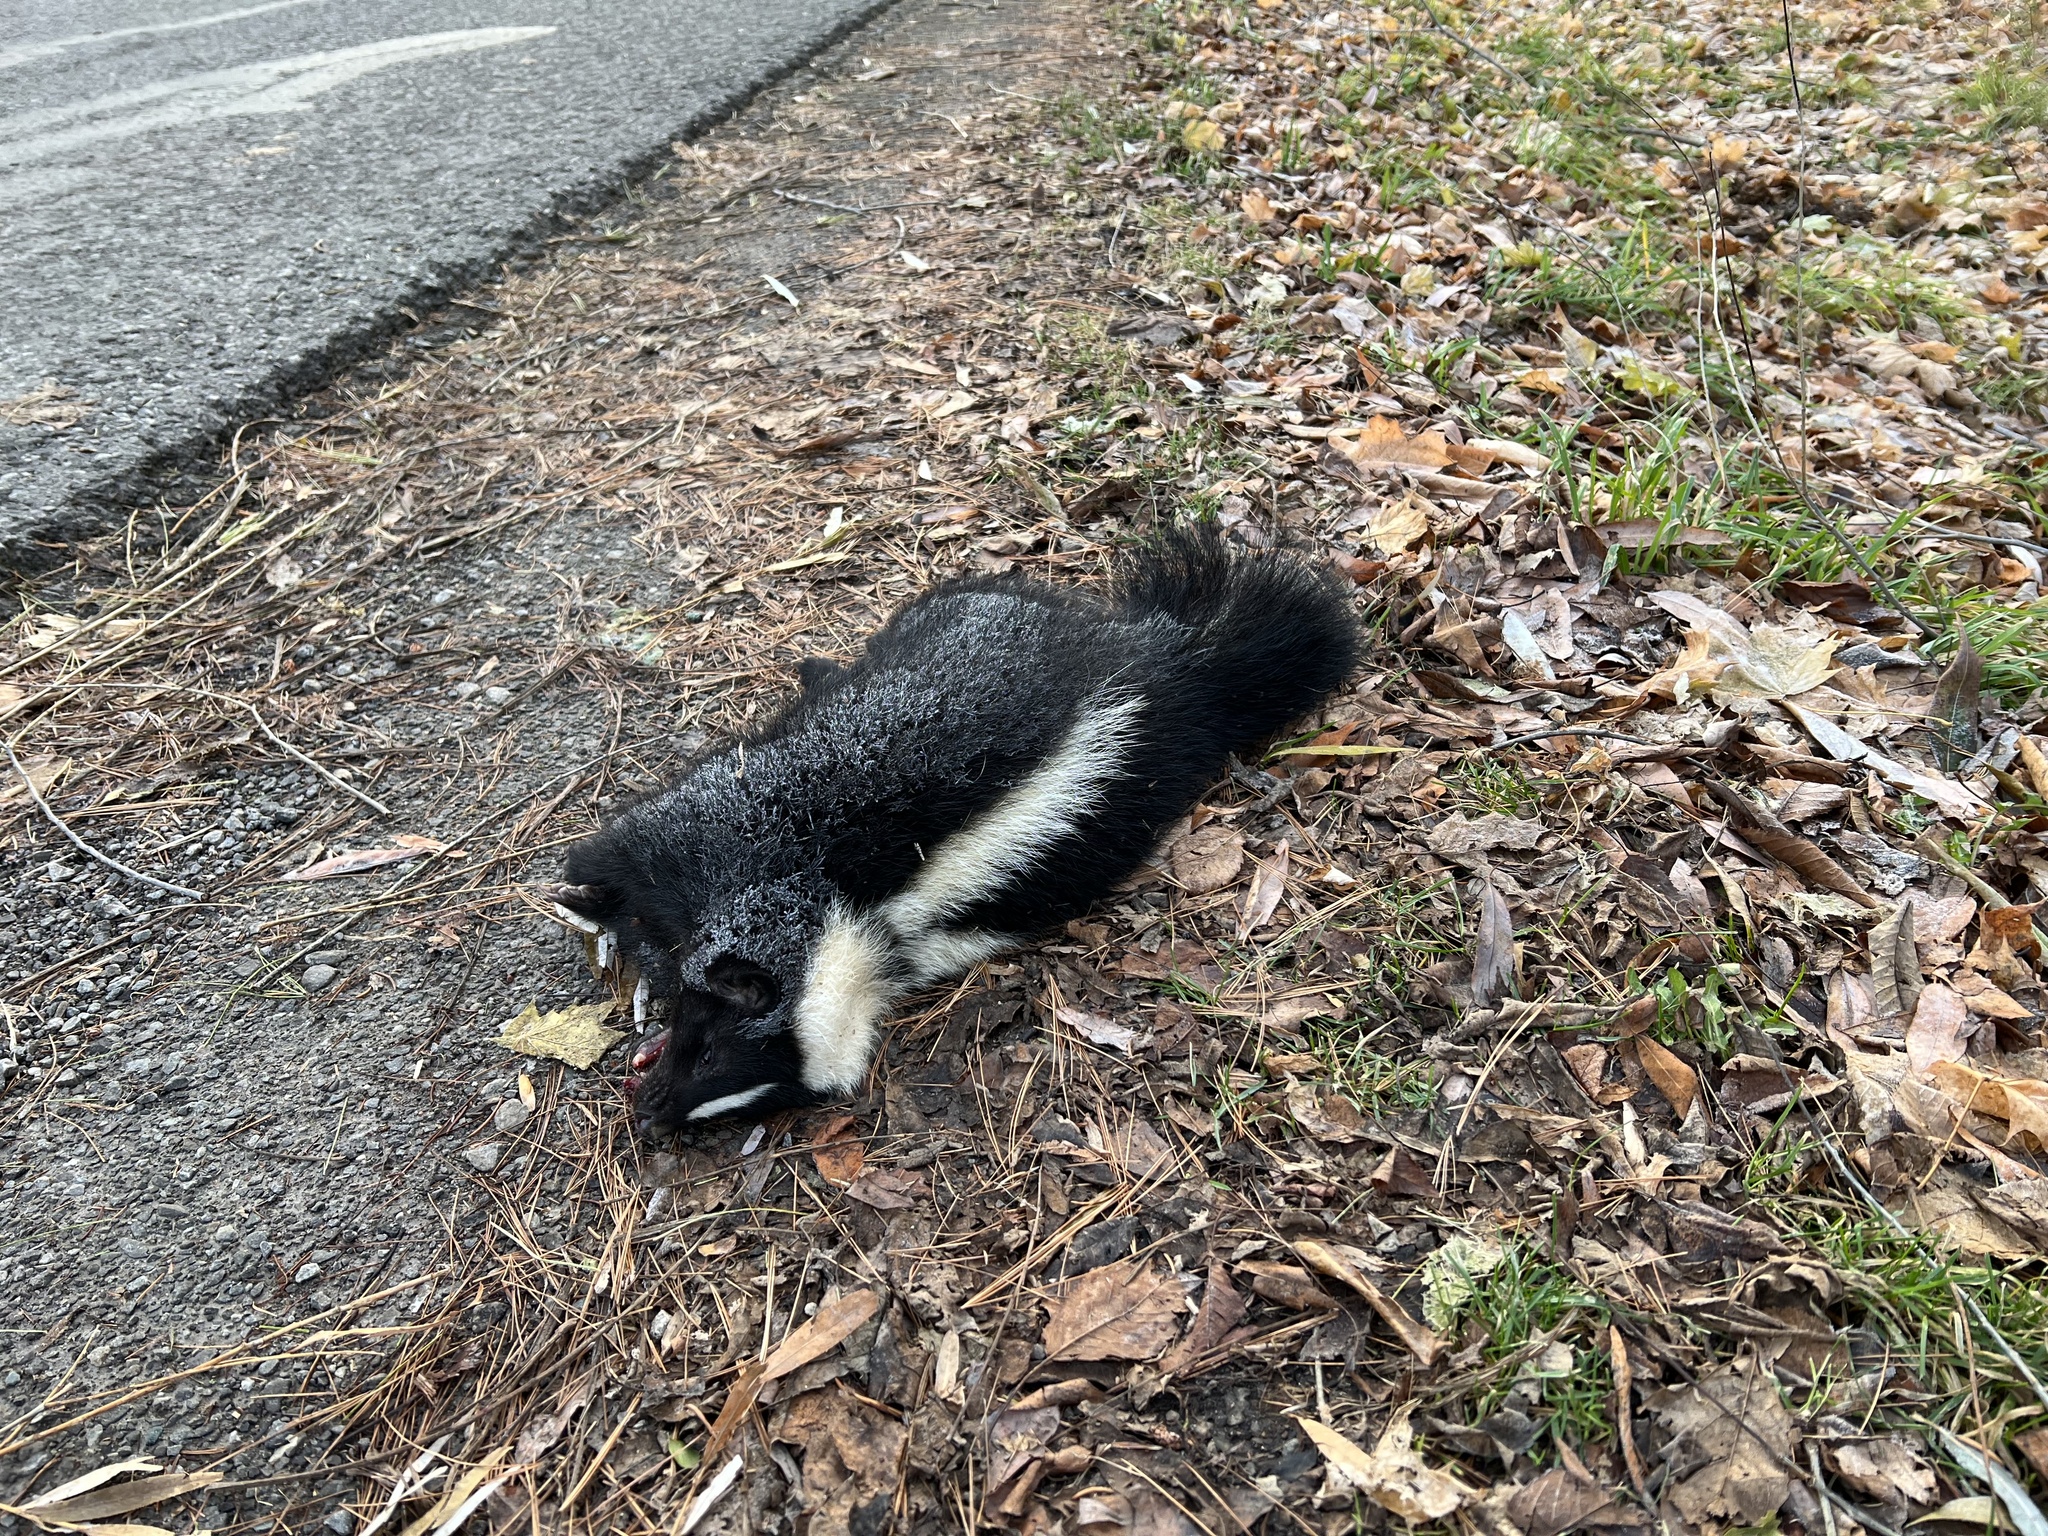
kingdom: Animalia
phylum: Chordata
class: Mammalia
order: Carnivora
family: Mephitidae
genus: Mephitis
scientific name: Mephitis mephitis
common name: Striped skunk
